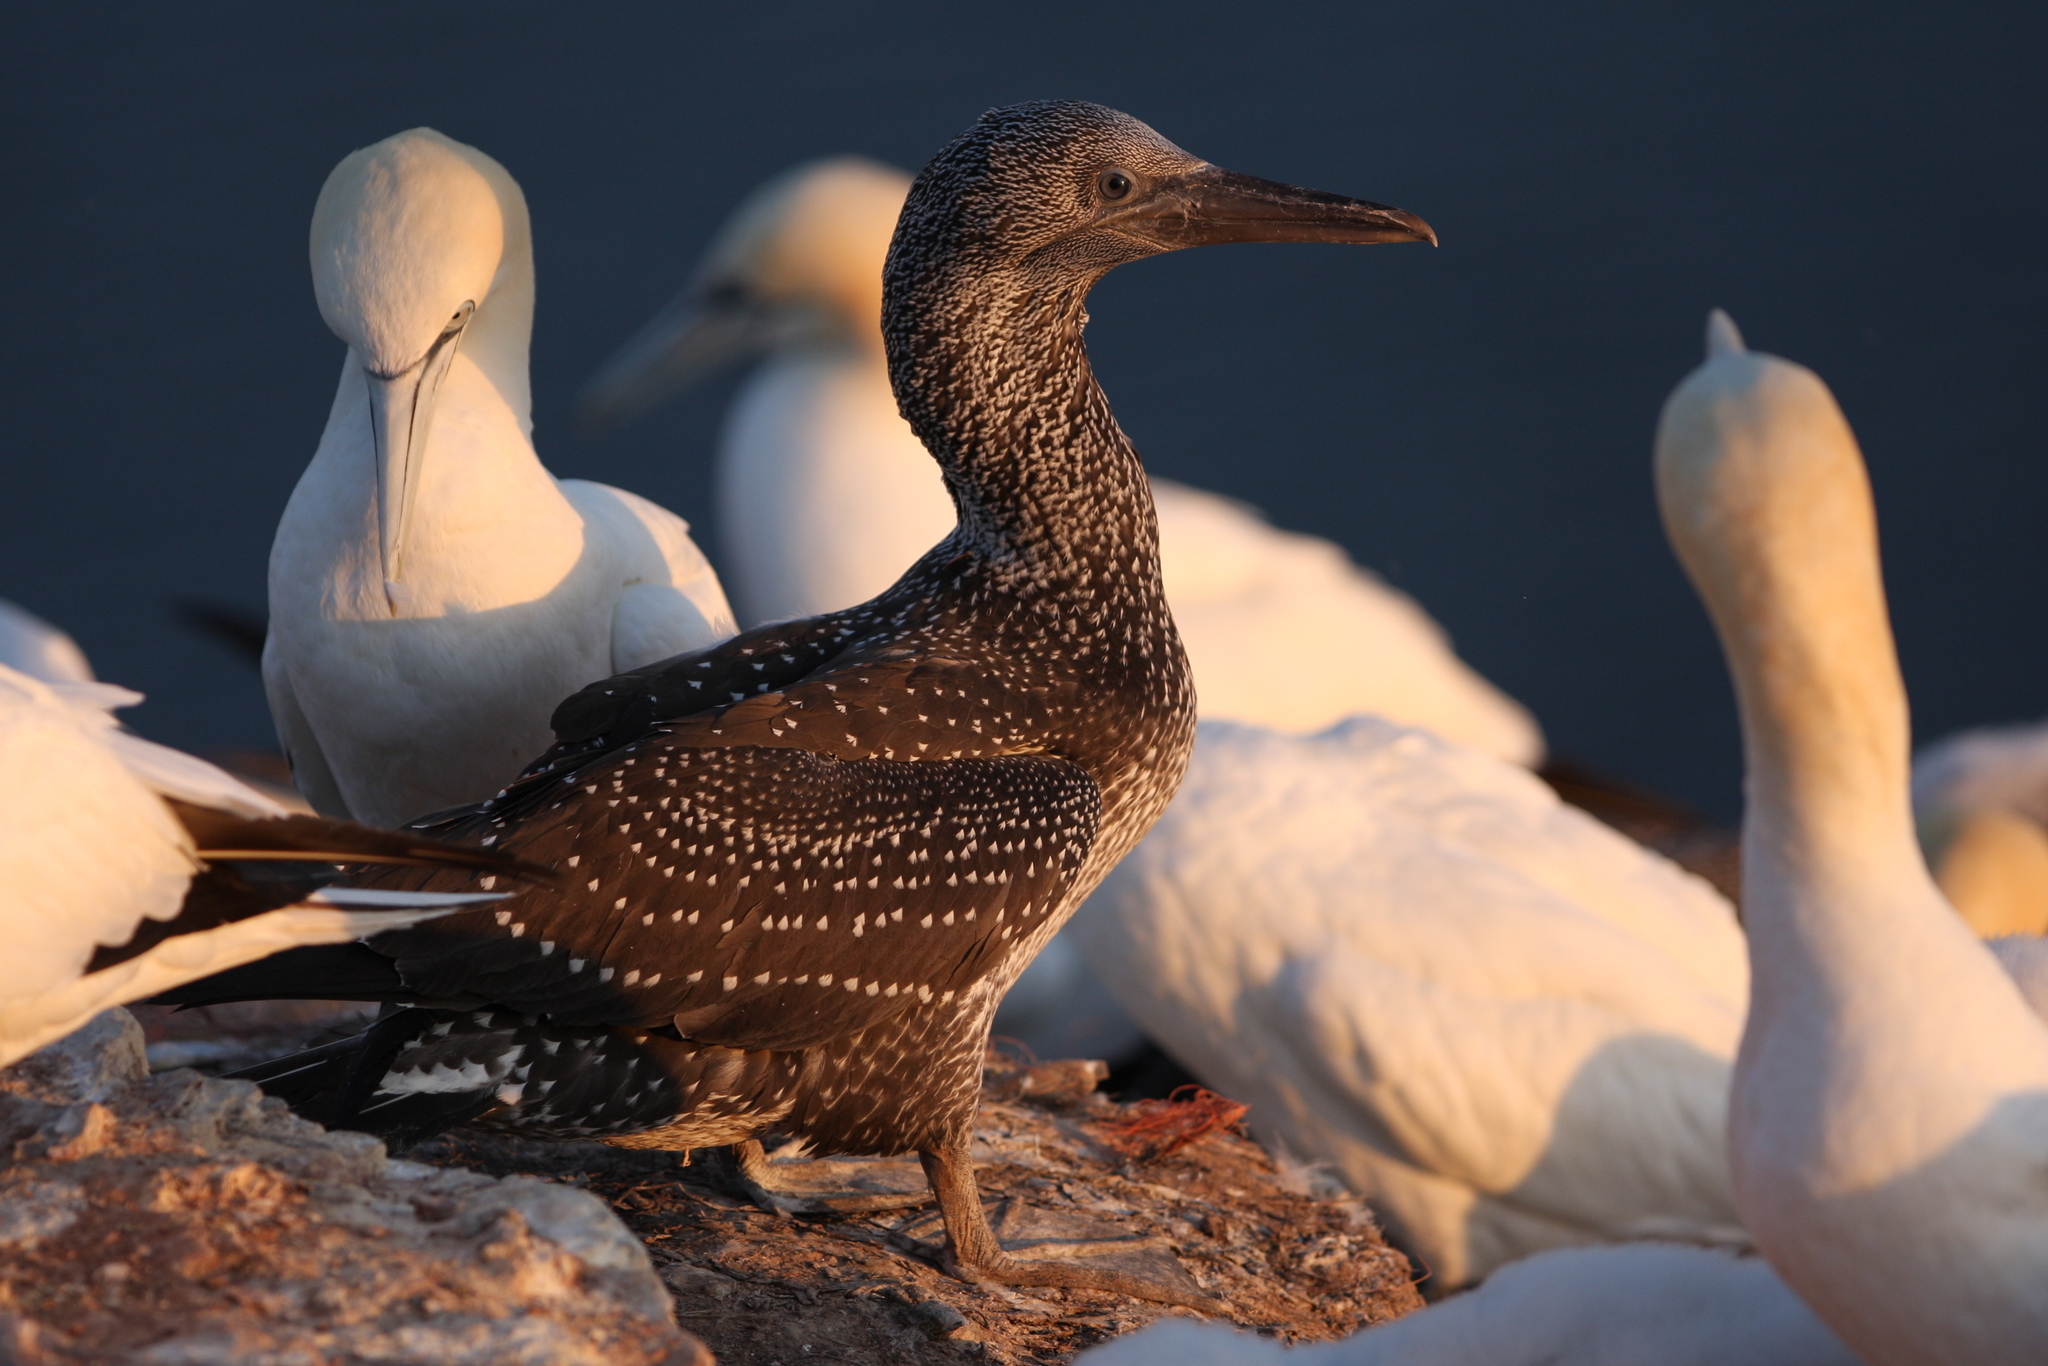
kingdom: Animalia
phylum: Chordata
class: Aves
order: Suliformes
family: Sulidae
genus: Morus
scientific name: Morus bassanus
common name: Northern gannet
